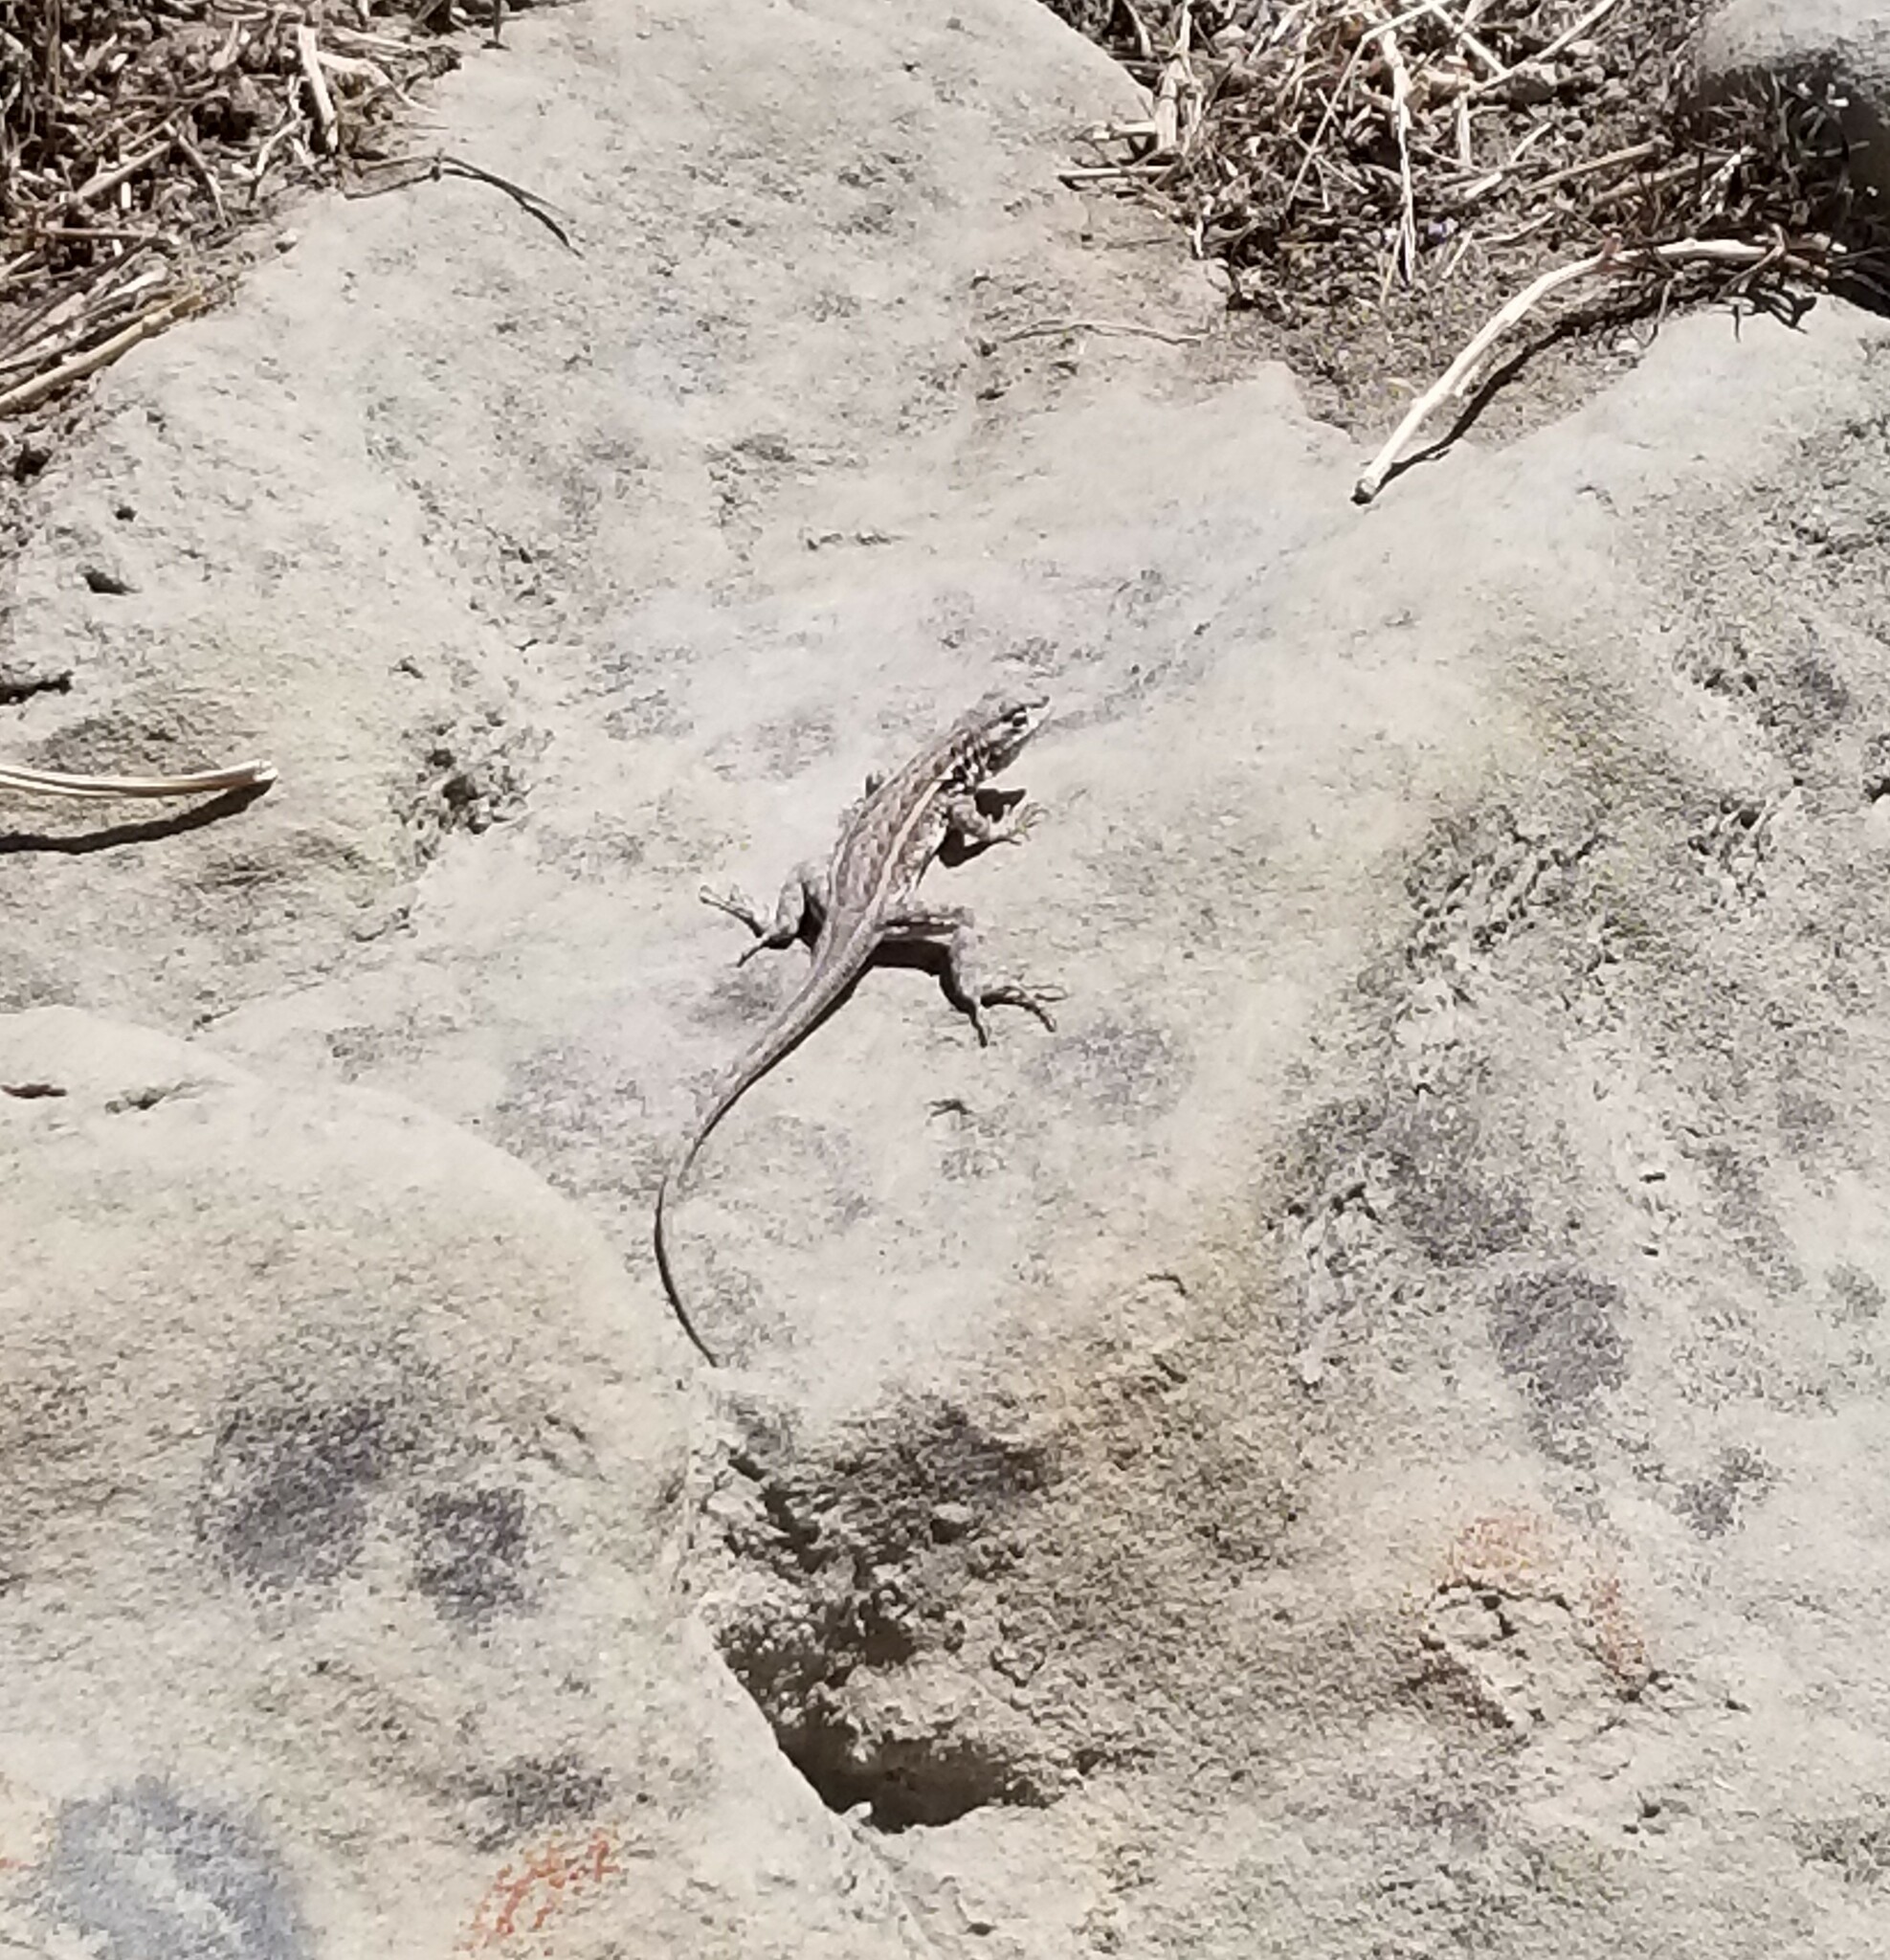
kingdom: Animalia
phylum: Chordata
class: Squamata
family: Phrynosomatidae
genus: Uta
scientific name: Uta stansburiana
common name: Side-blotched lizard
